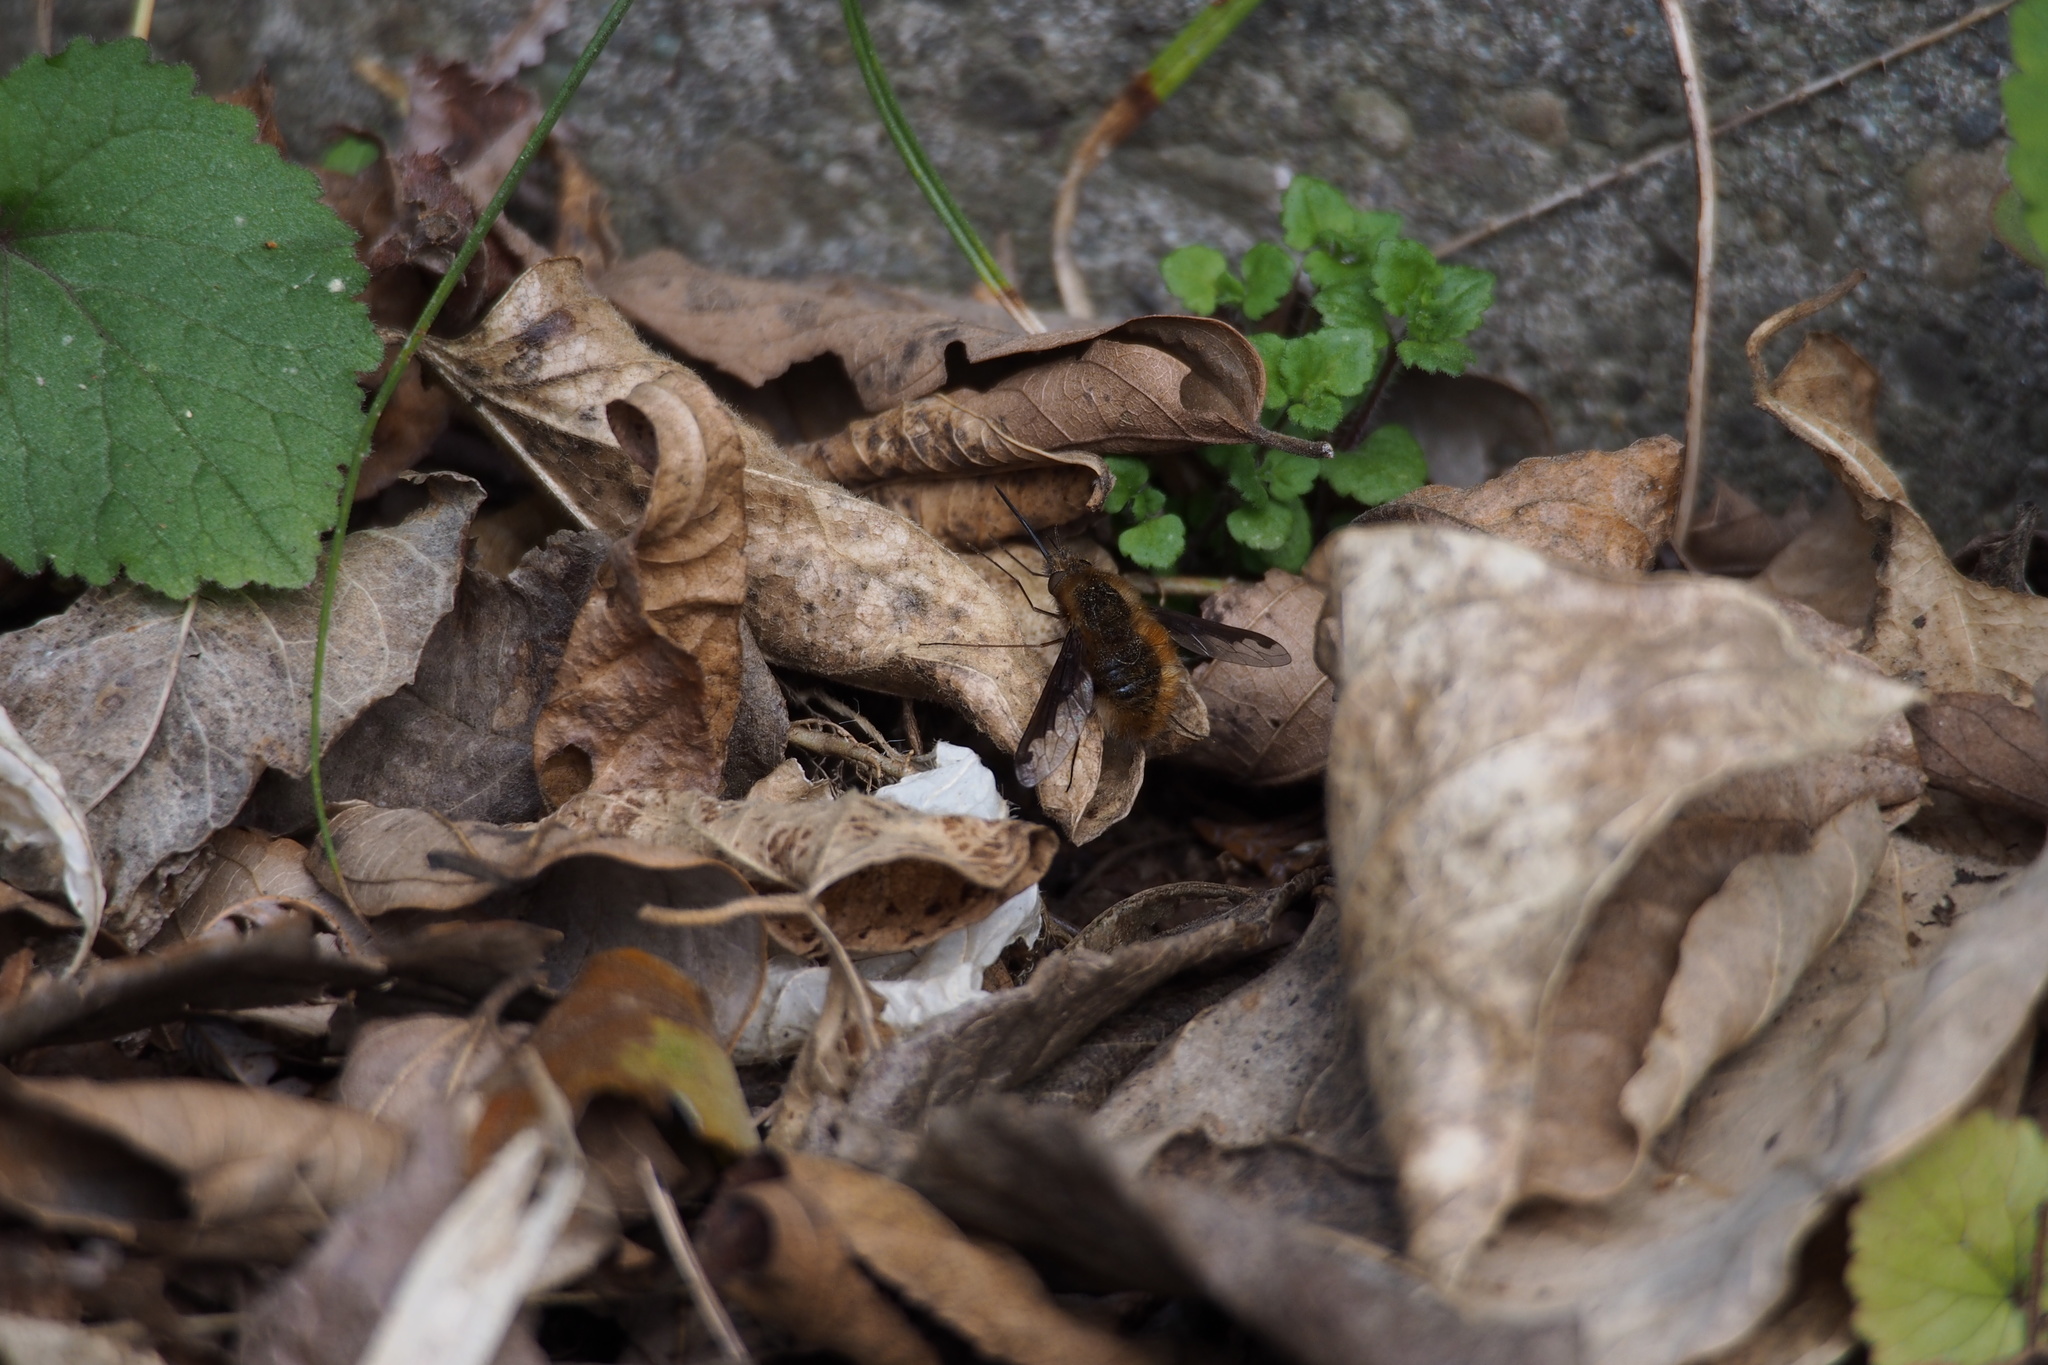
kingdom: Animalia
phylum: Arthropoda
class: Insecta
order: Diptera
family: Bombyliidae
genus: Bombylius
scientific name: Bombylius major
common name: Bee fly
